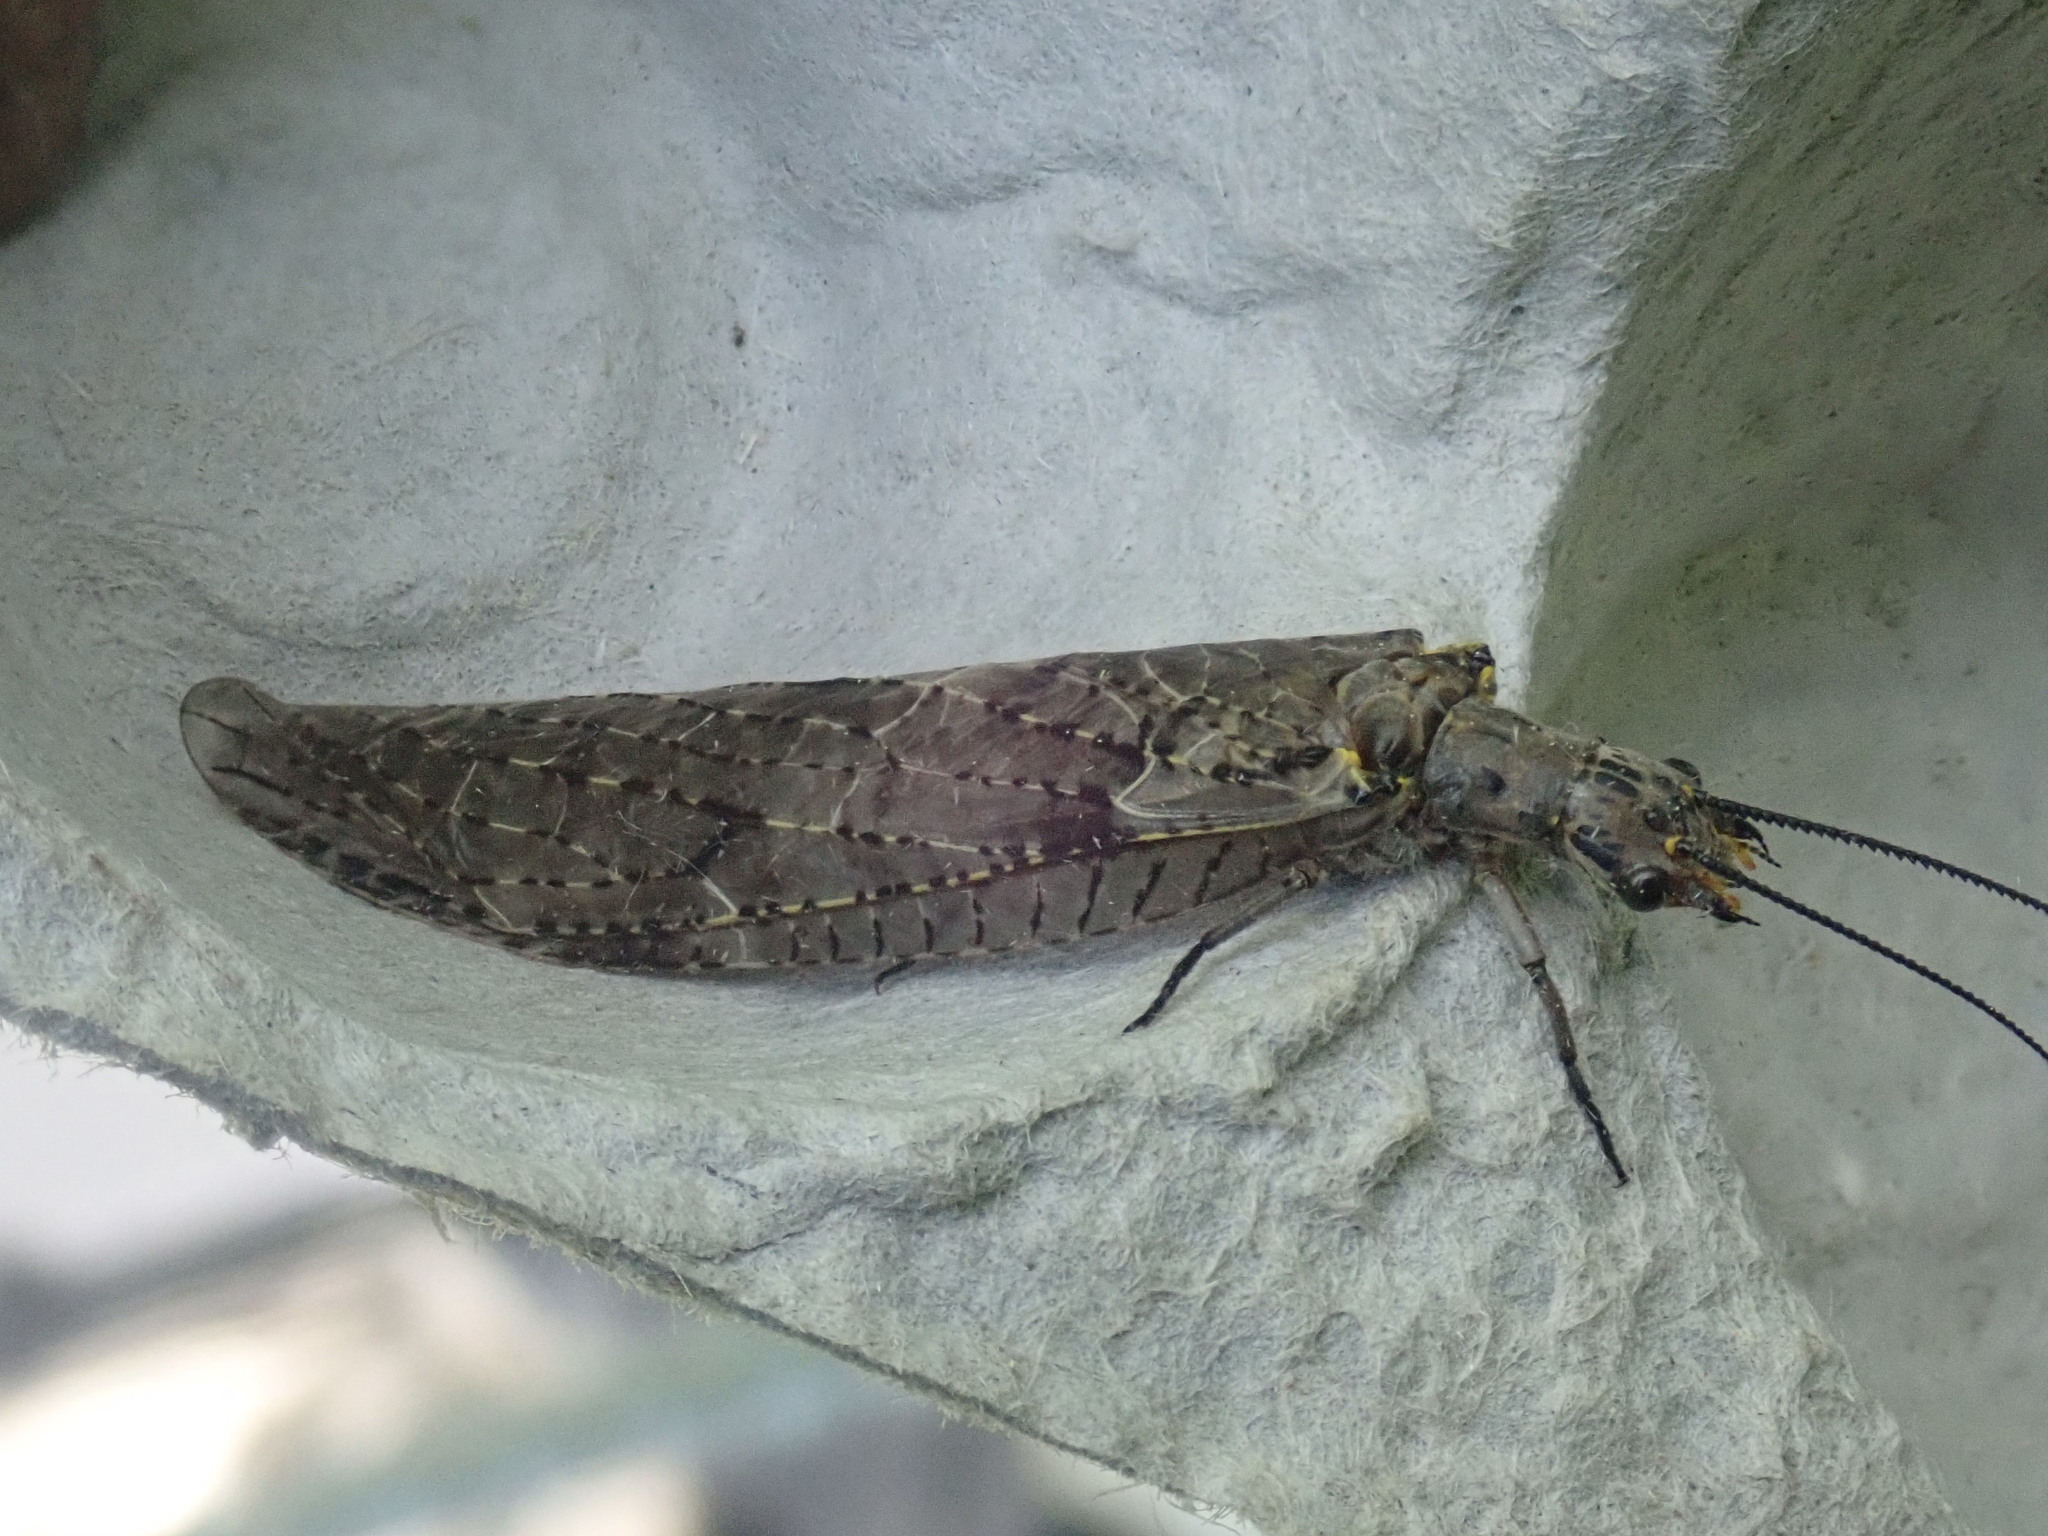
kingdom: Animalia
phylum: Arthropoda
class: Insecta
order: Megaloptera
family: Corydalidae
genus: Chauliodes
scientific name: Chauliodes rastricornis
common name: Spring fishfly
